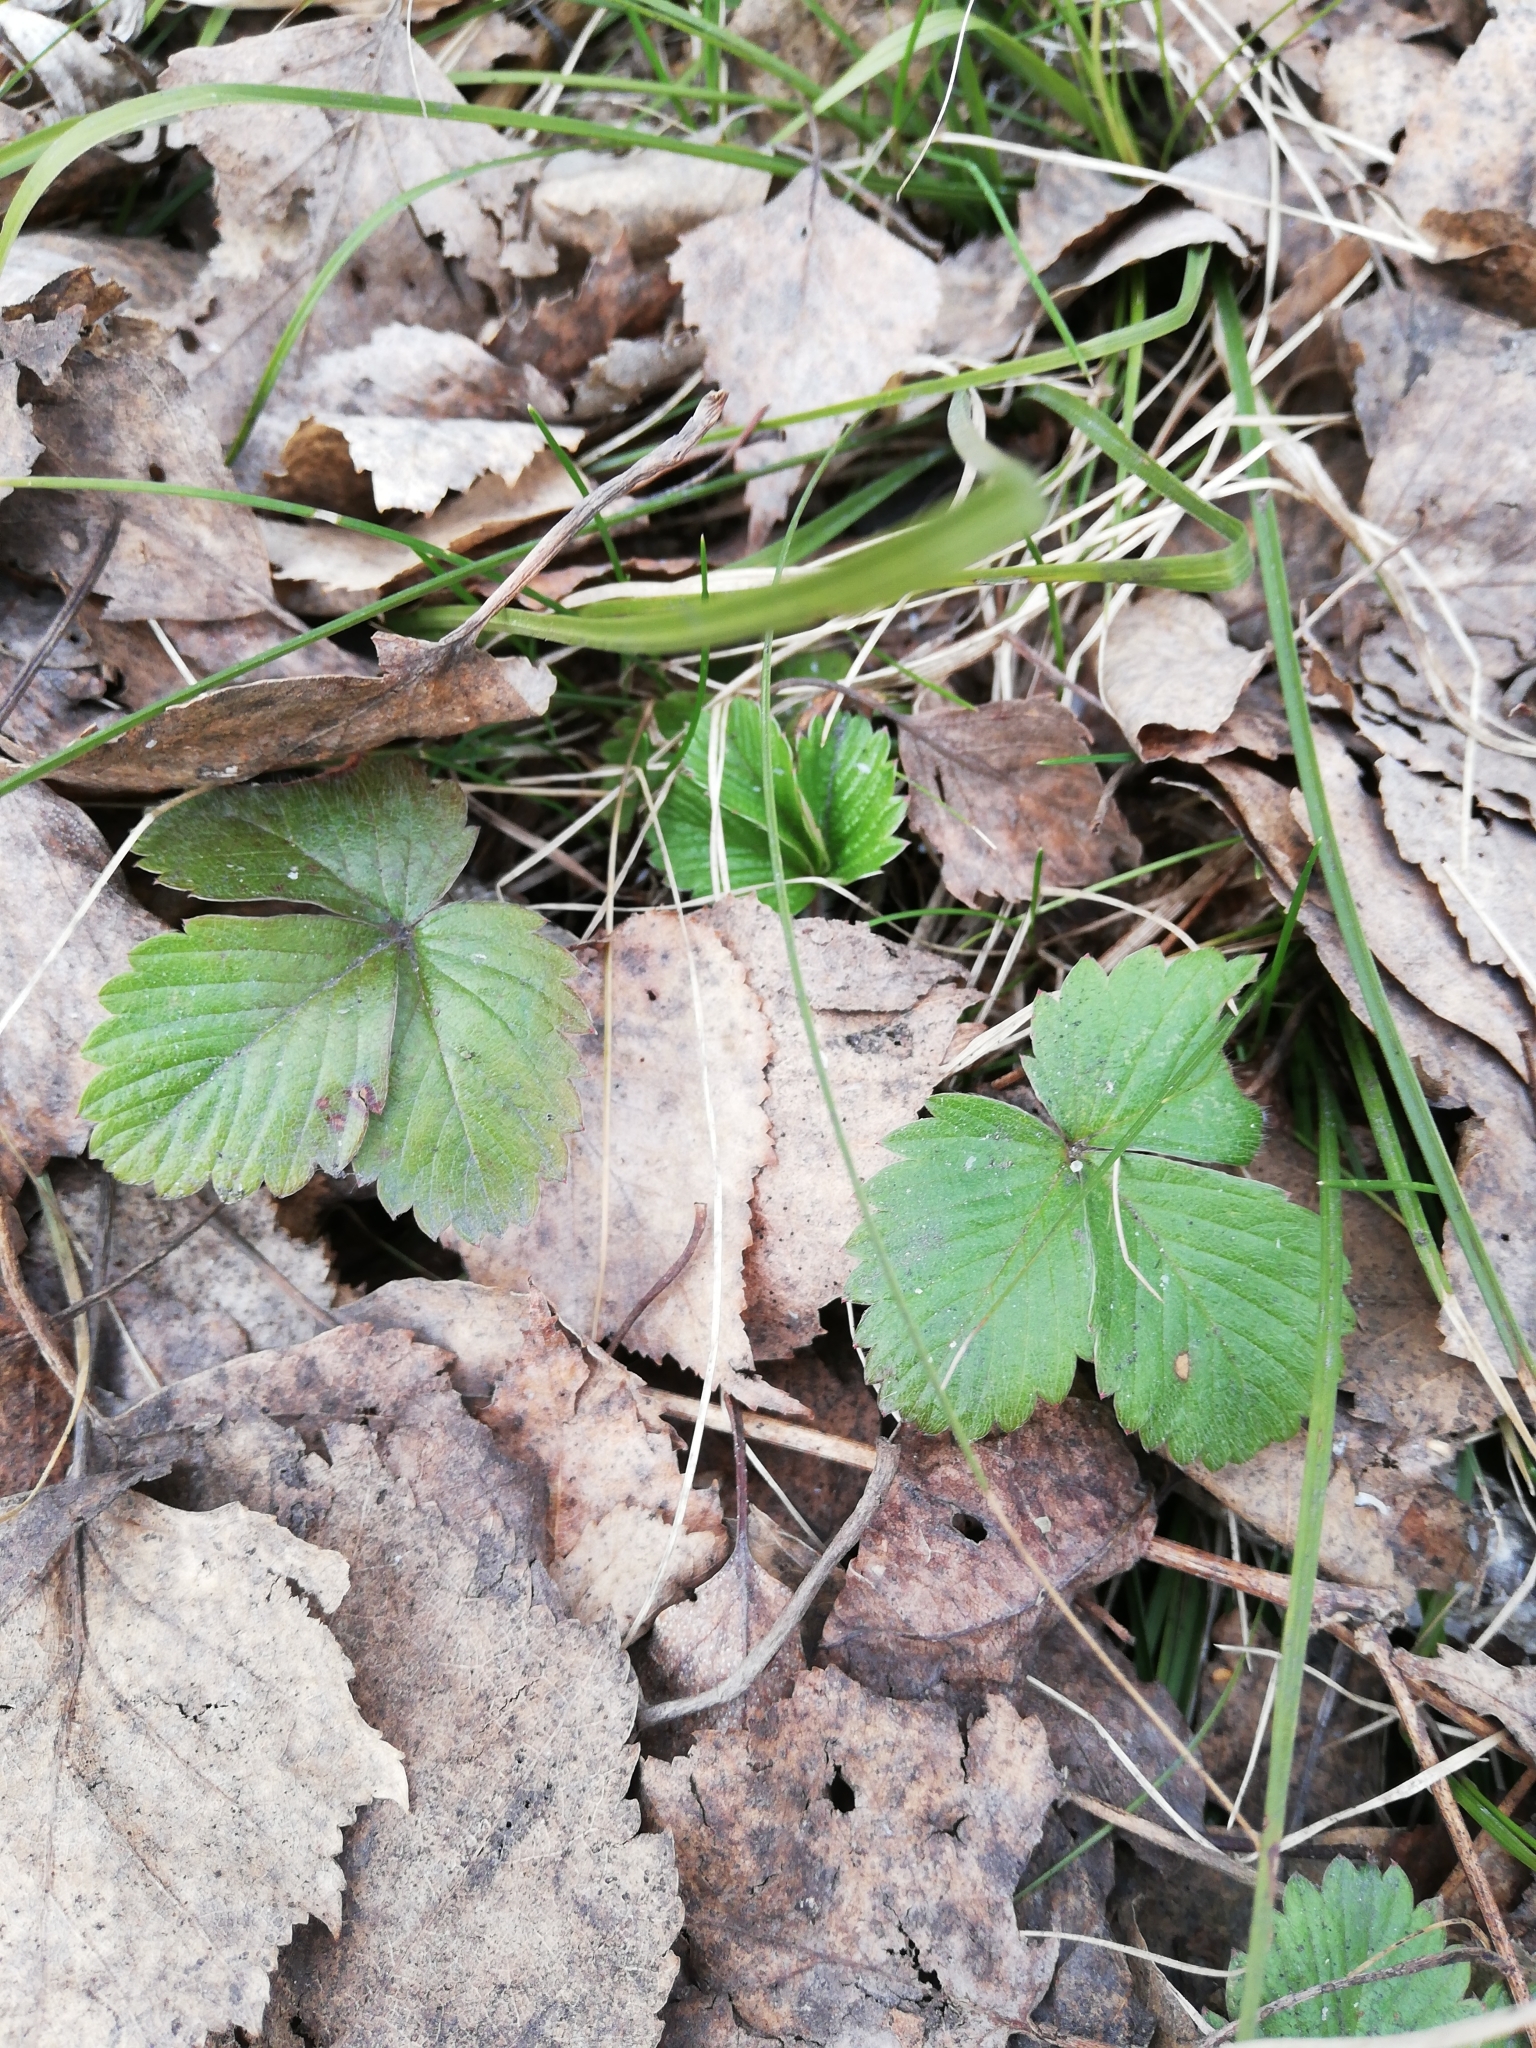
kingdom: Plantae
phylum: Tracheophyta
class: Magnoliopsida
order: Rosales
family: Rosaceae
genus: Fragaria
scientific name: Fragaria vesca
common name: Wild strawberry
